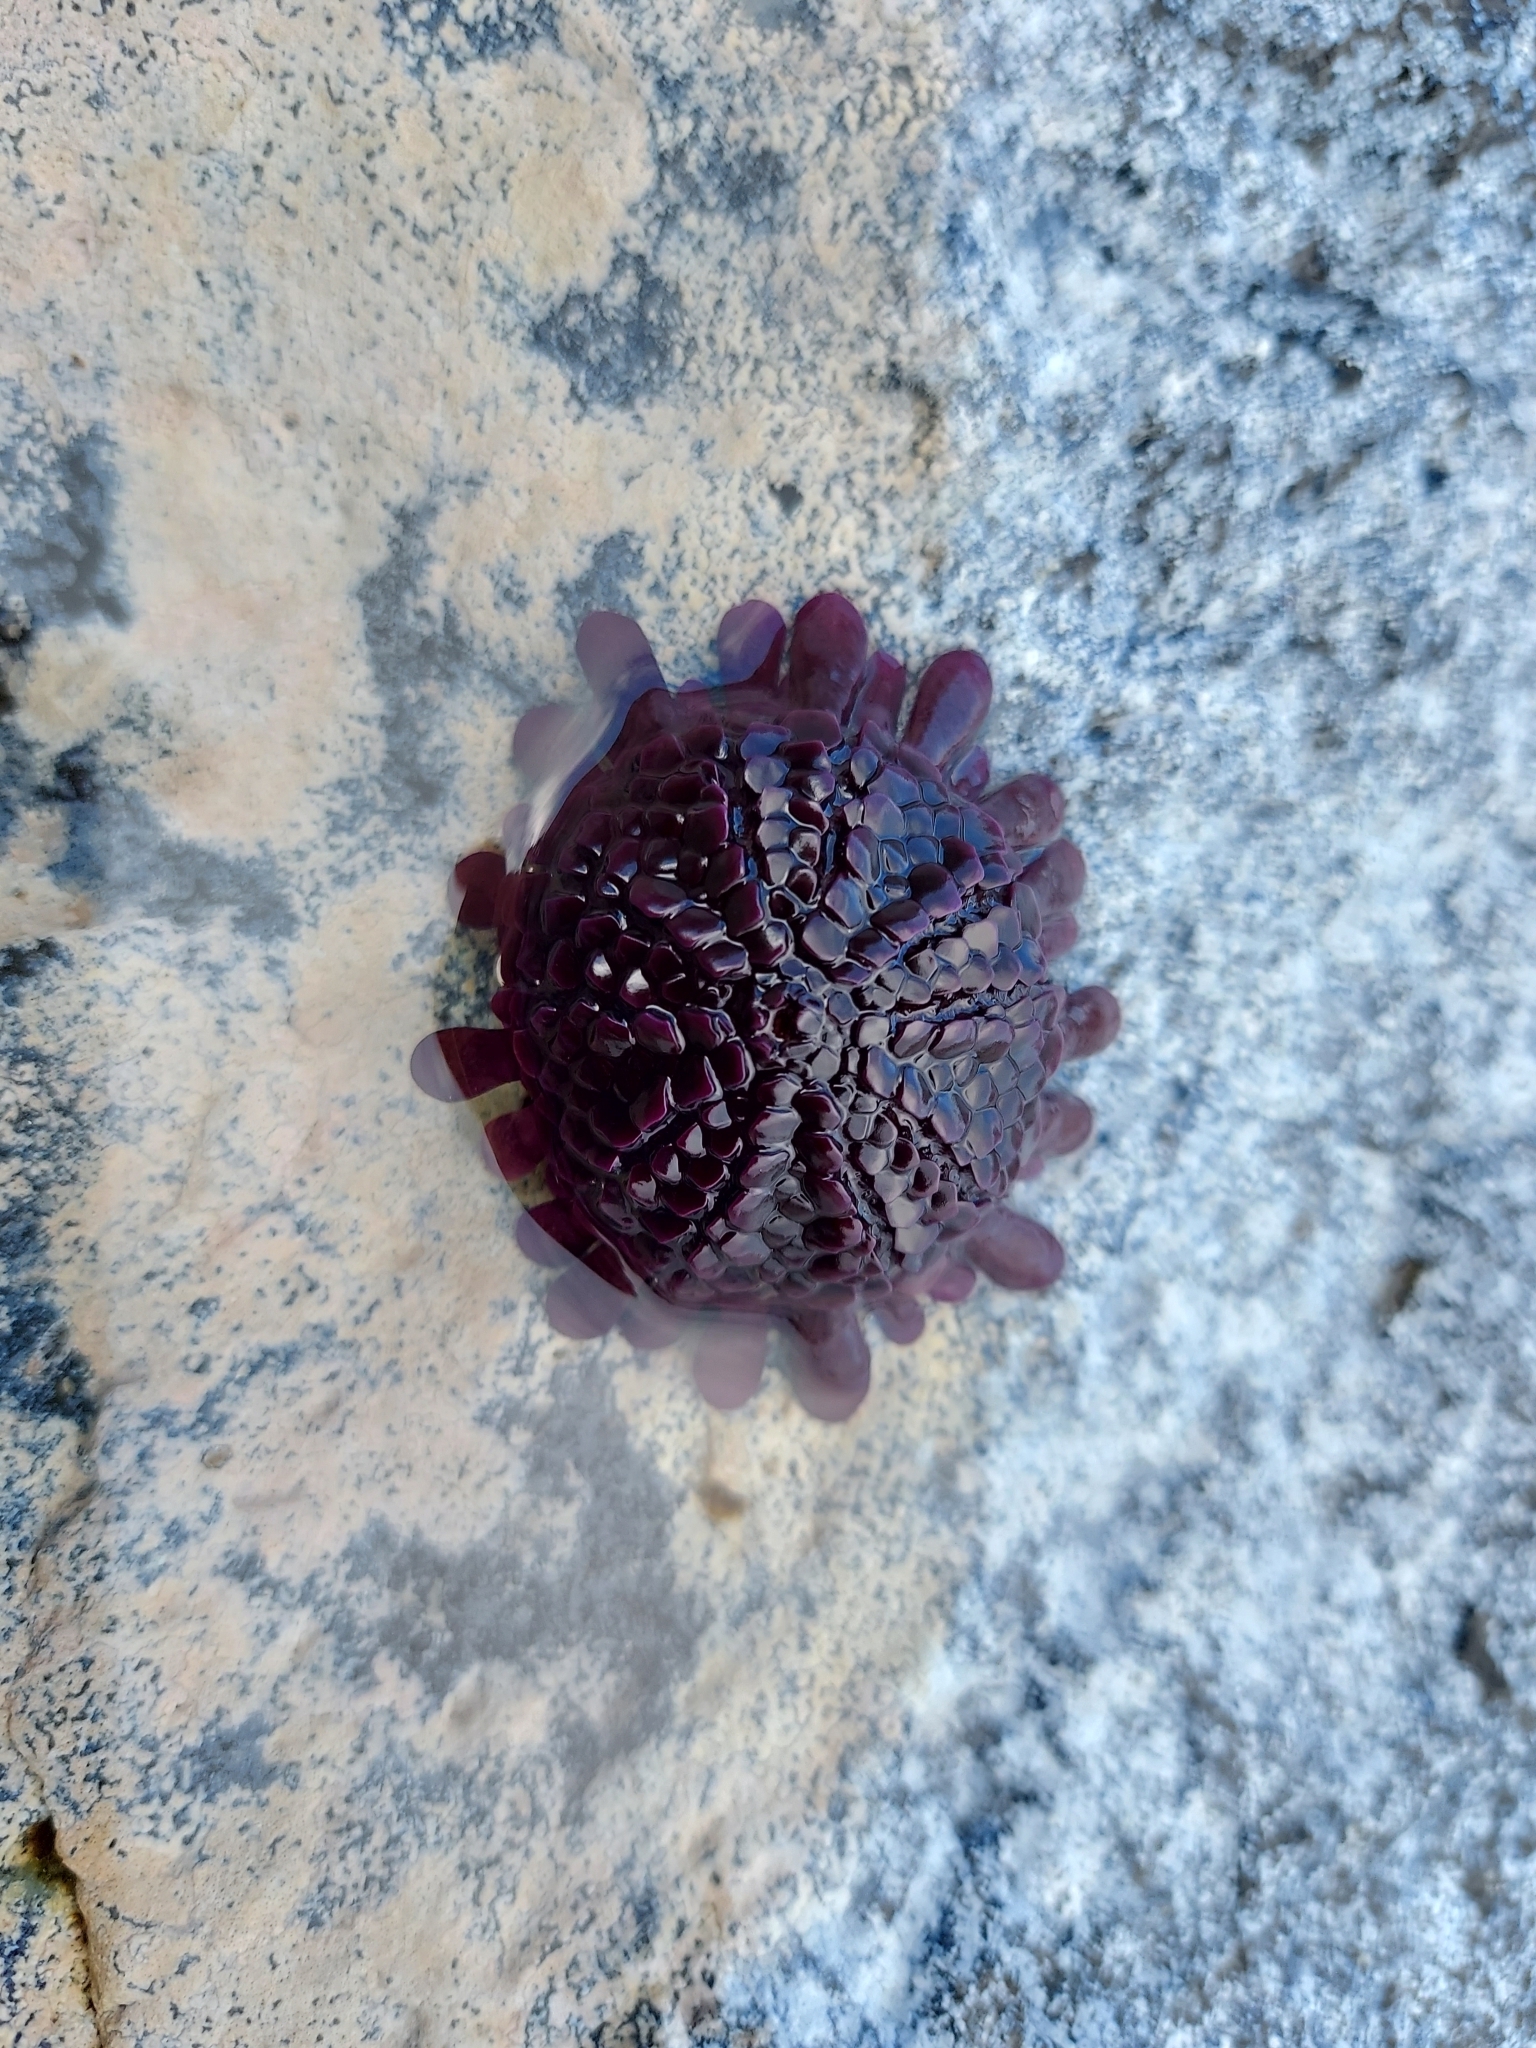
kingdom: Animalia
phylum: Echinodermata
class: Echinoidea
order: Camarodonta
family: Echinometridae
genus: Colobocentrotus
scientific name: Colobocentrotus atratus
